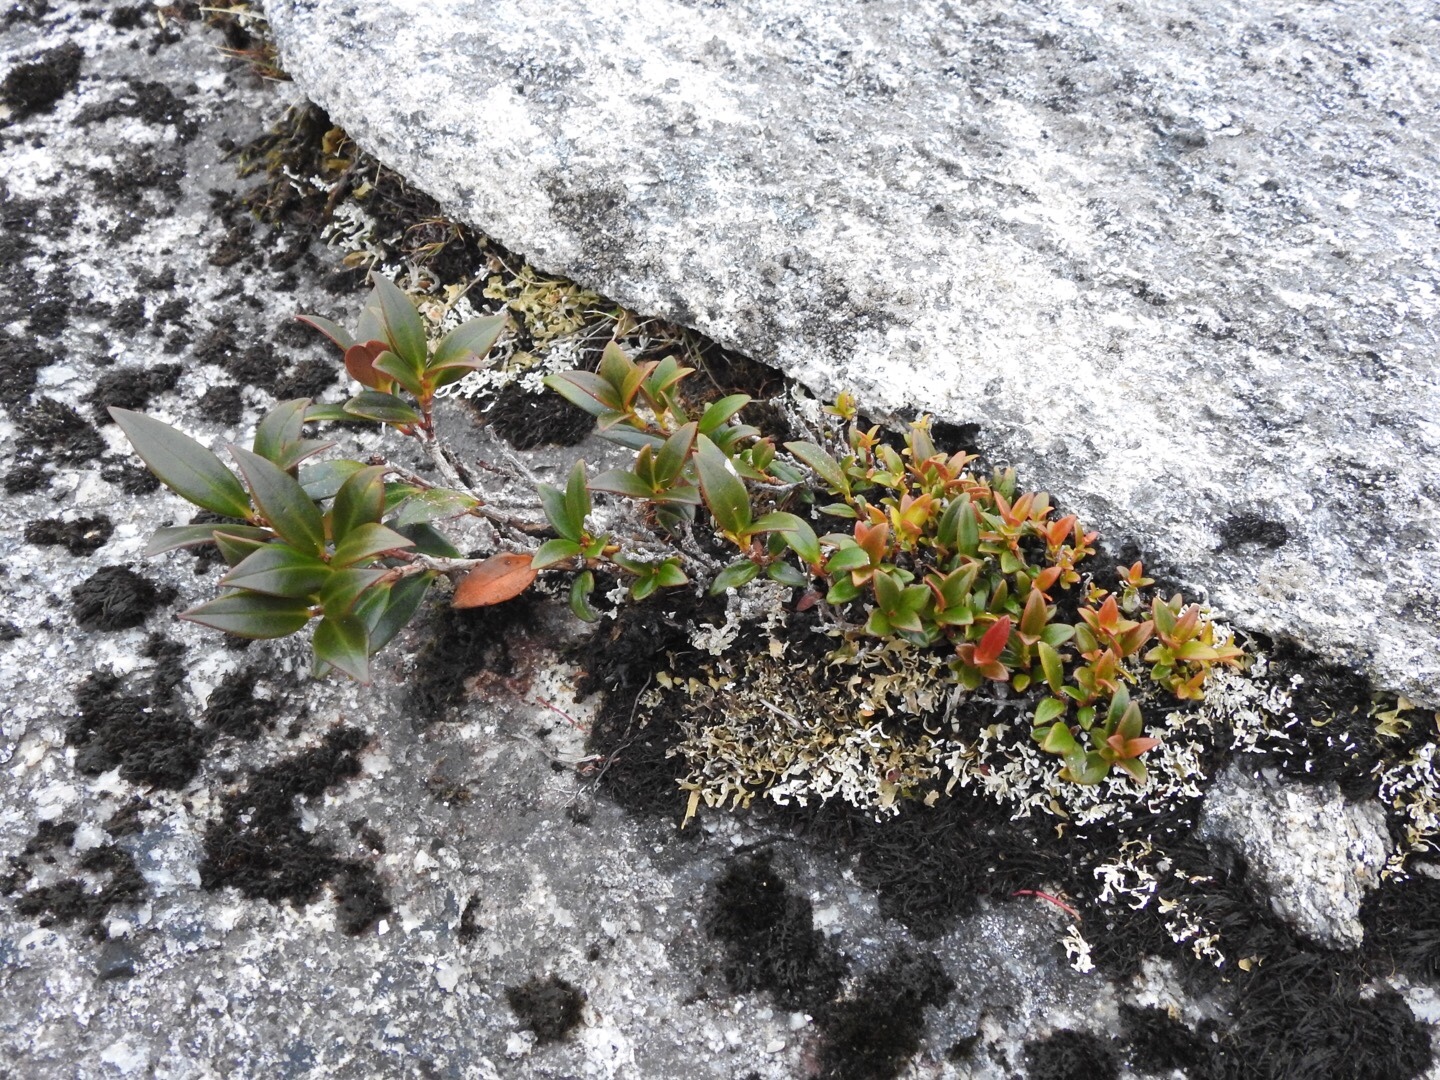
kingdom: Plantae
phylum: Tracheophyta
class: Magnoliopsida
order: Myrtales
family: Myrtaceae
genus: Metrosideros
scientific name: Metrosideros umbellata
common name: Southern rata
